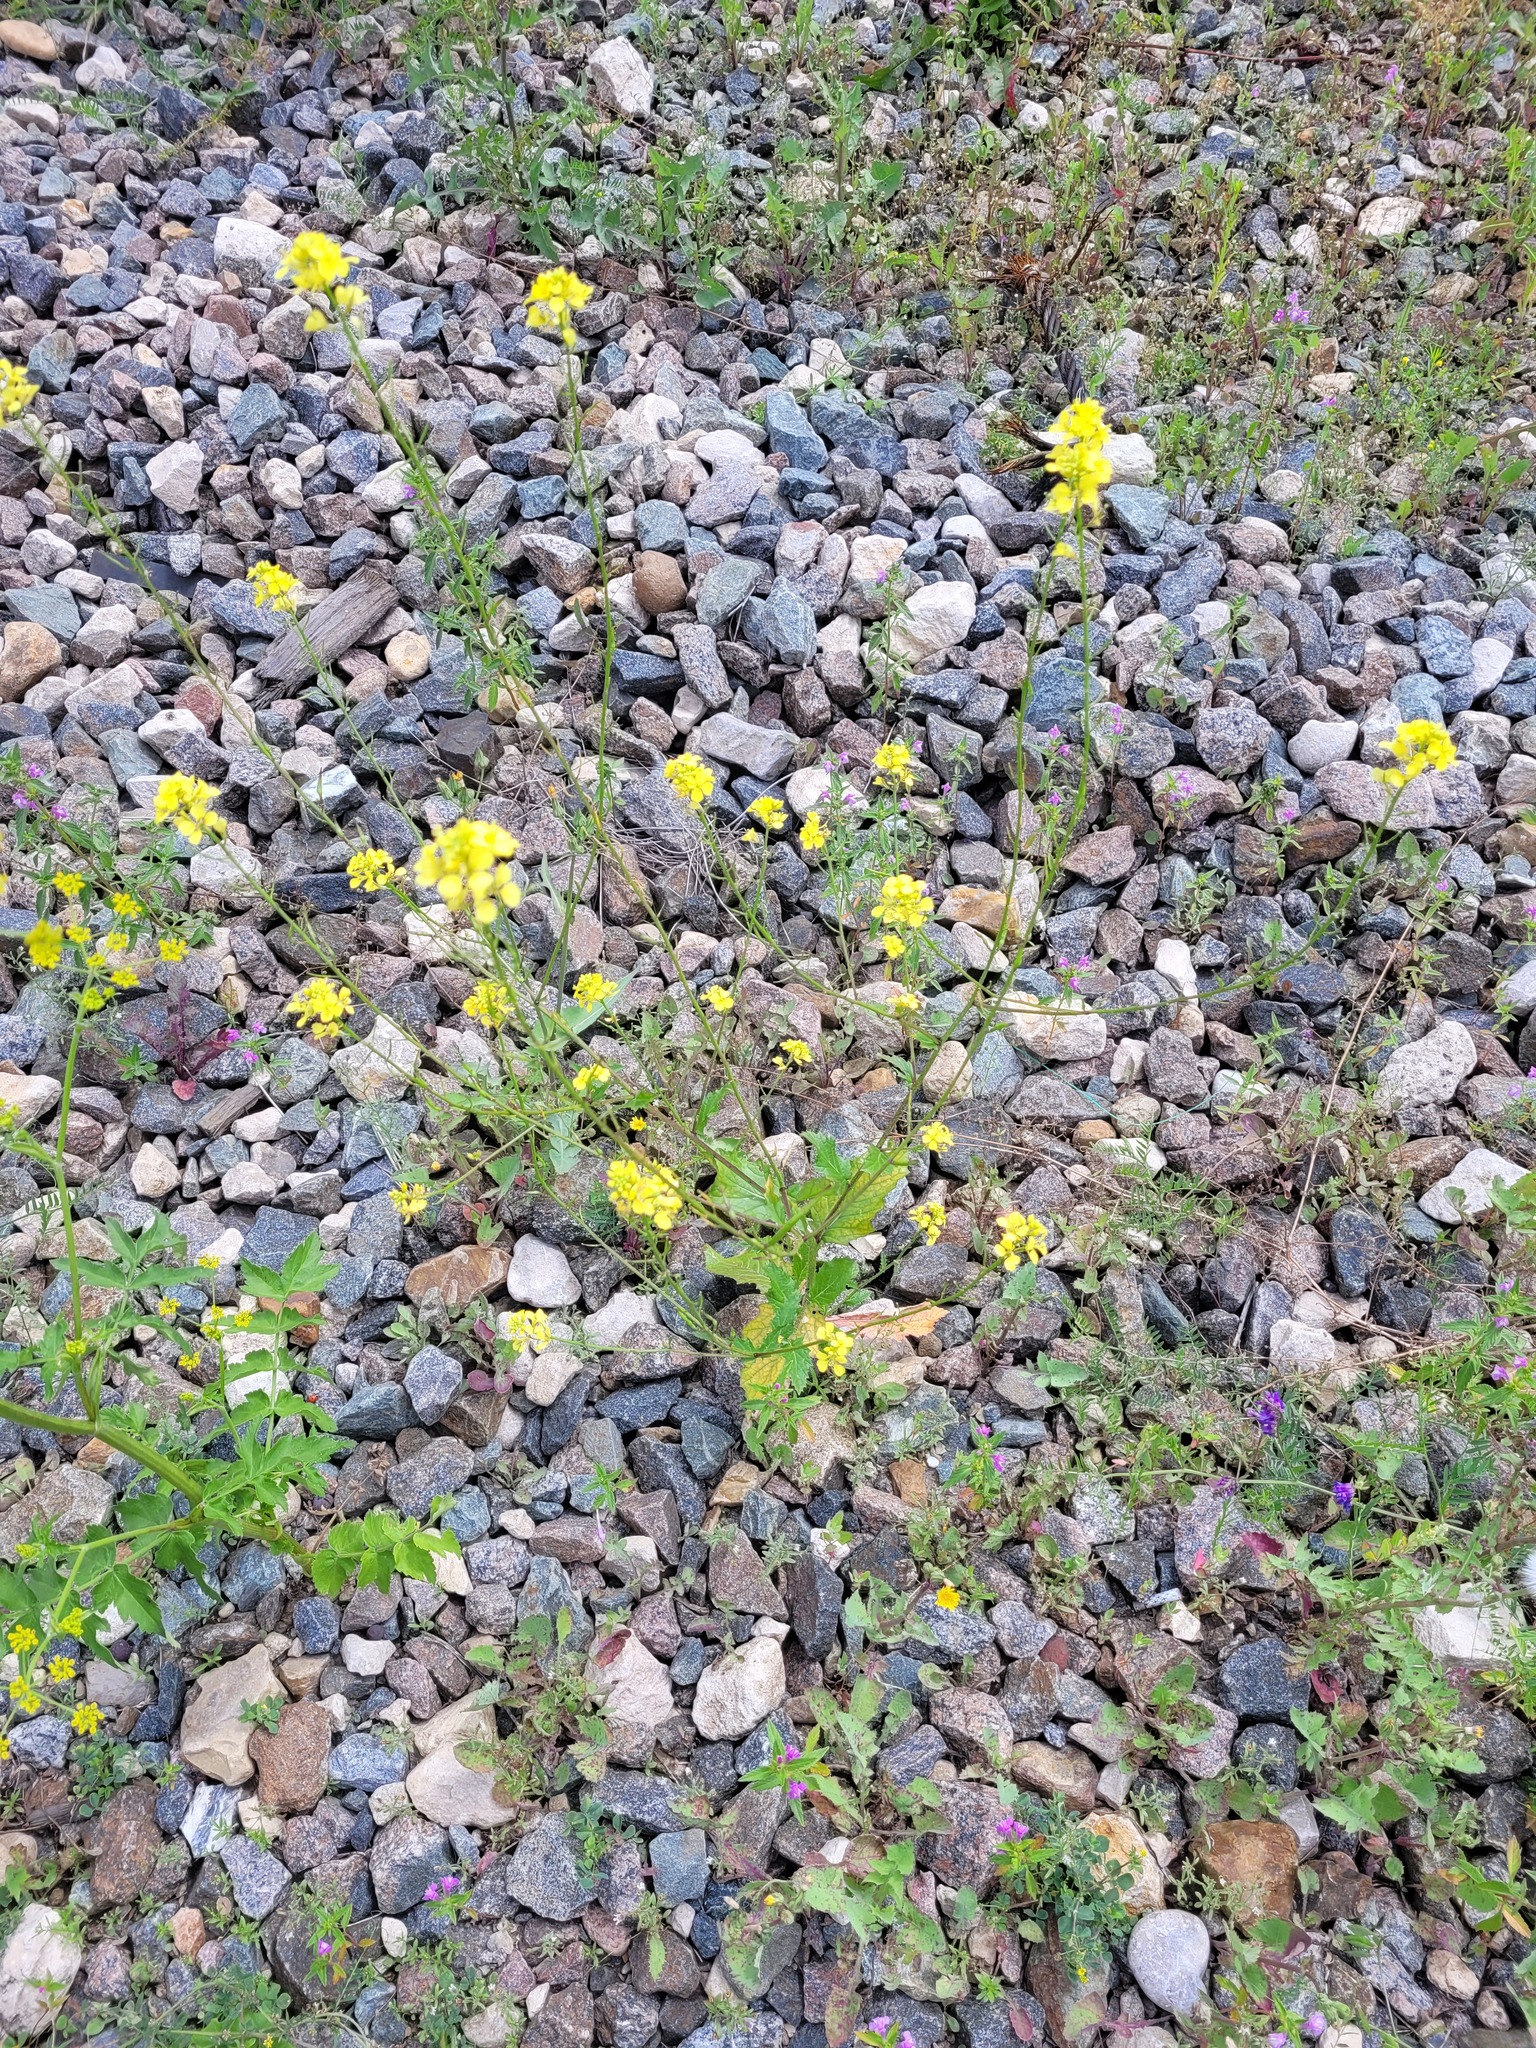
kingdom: Plantae
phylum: Tracheophyta
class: Magnoliopsida
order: Brassicales
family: Brassicaceae
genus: Sinapis
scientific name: Sinapis arvensis
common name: Charlock
